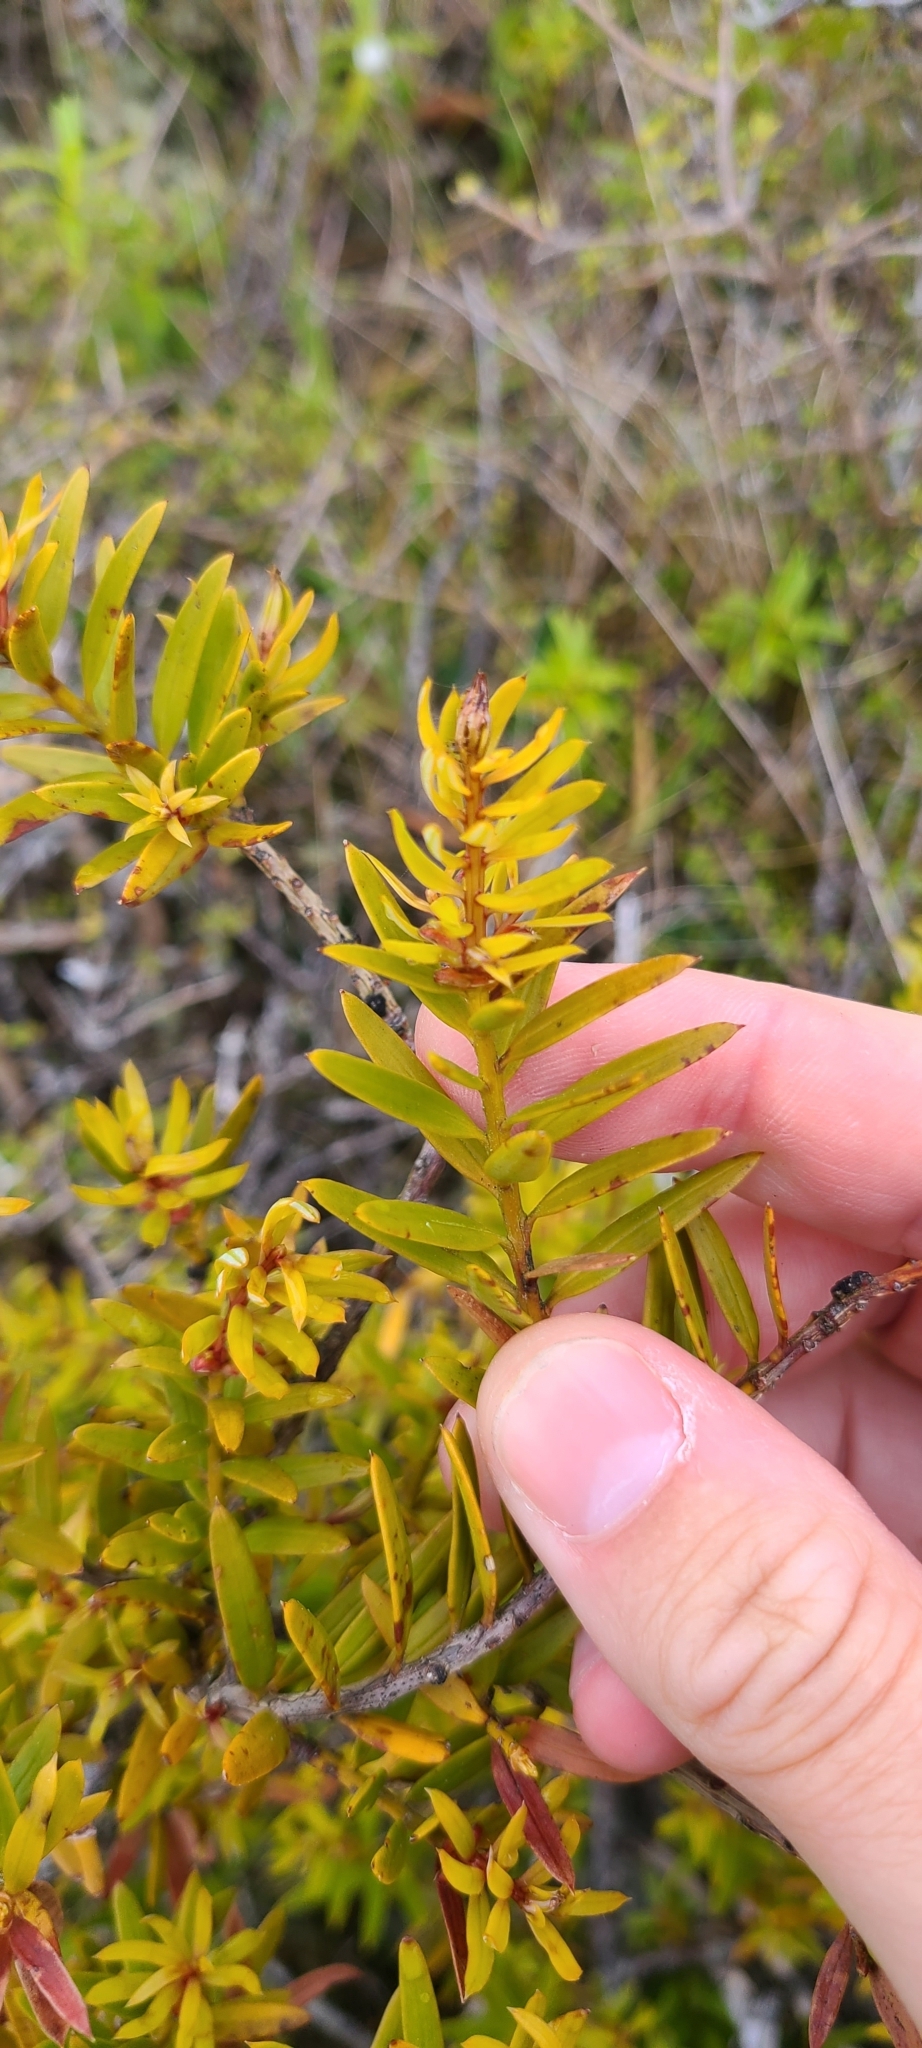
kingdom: Plantae
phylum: Tracheophyta
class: Pinopsida
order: Pinales
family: Podocarpaceae
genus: Podocarpus
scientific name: Podocarpus totara
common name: Totara
